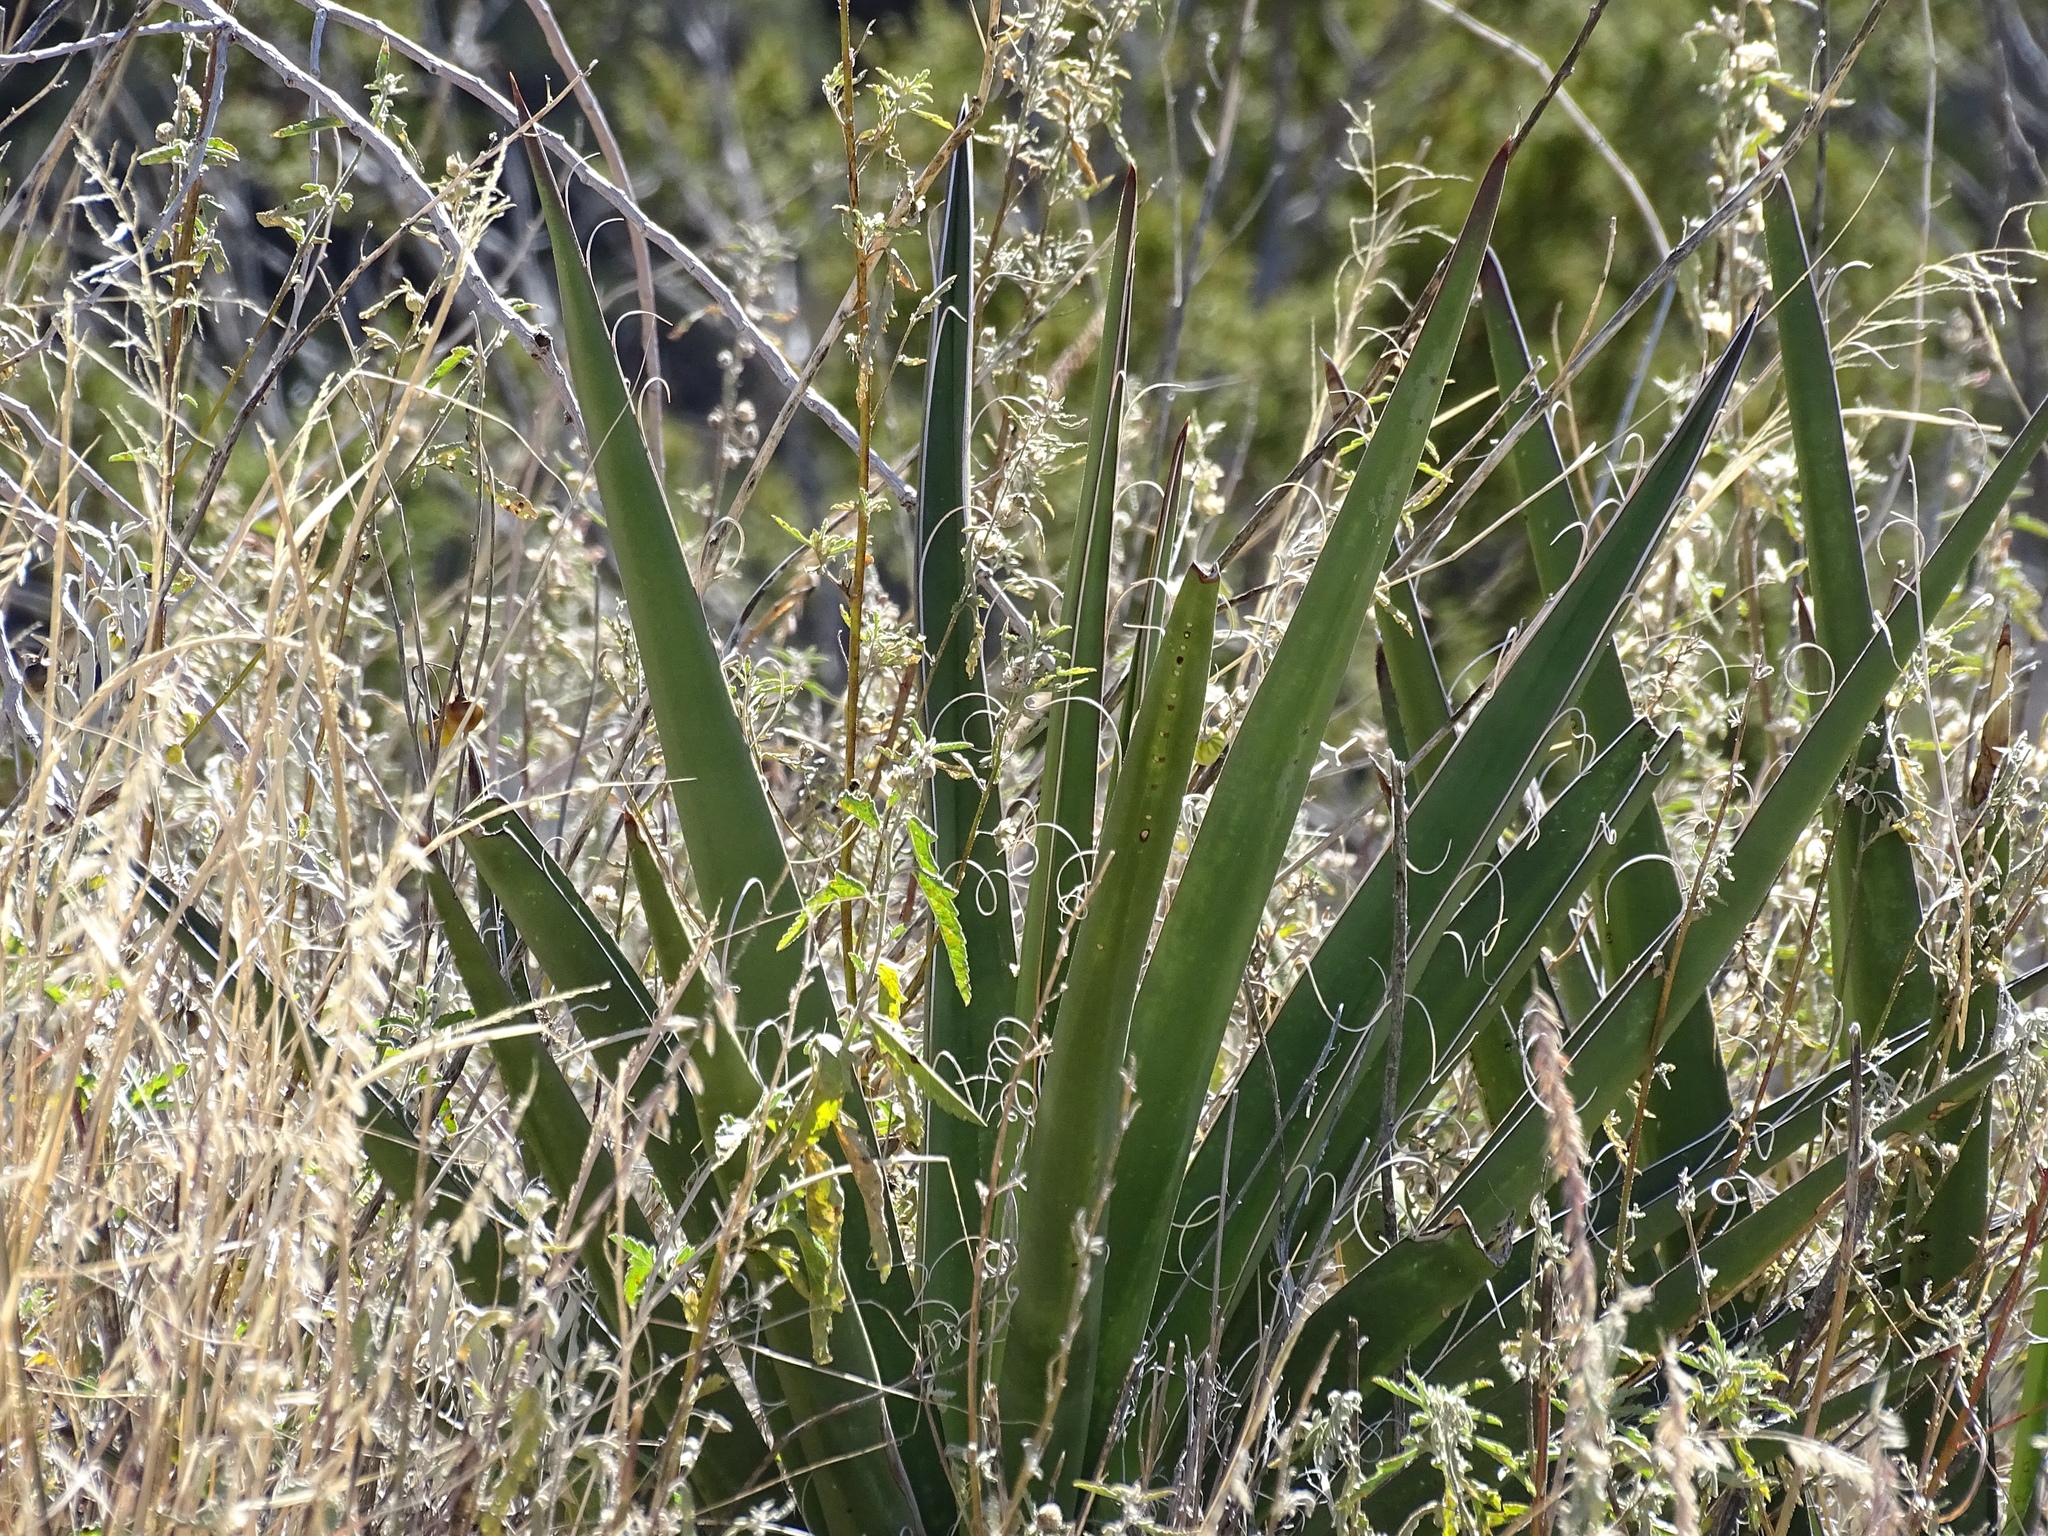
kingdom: Plantae
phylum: Tracheophyta
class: Liliopsida
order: Asparagales
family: Asparagaceae
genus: Yucca
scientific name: Yucca baccata
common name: Banana yucca
